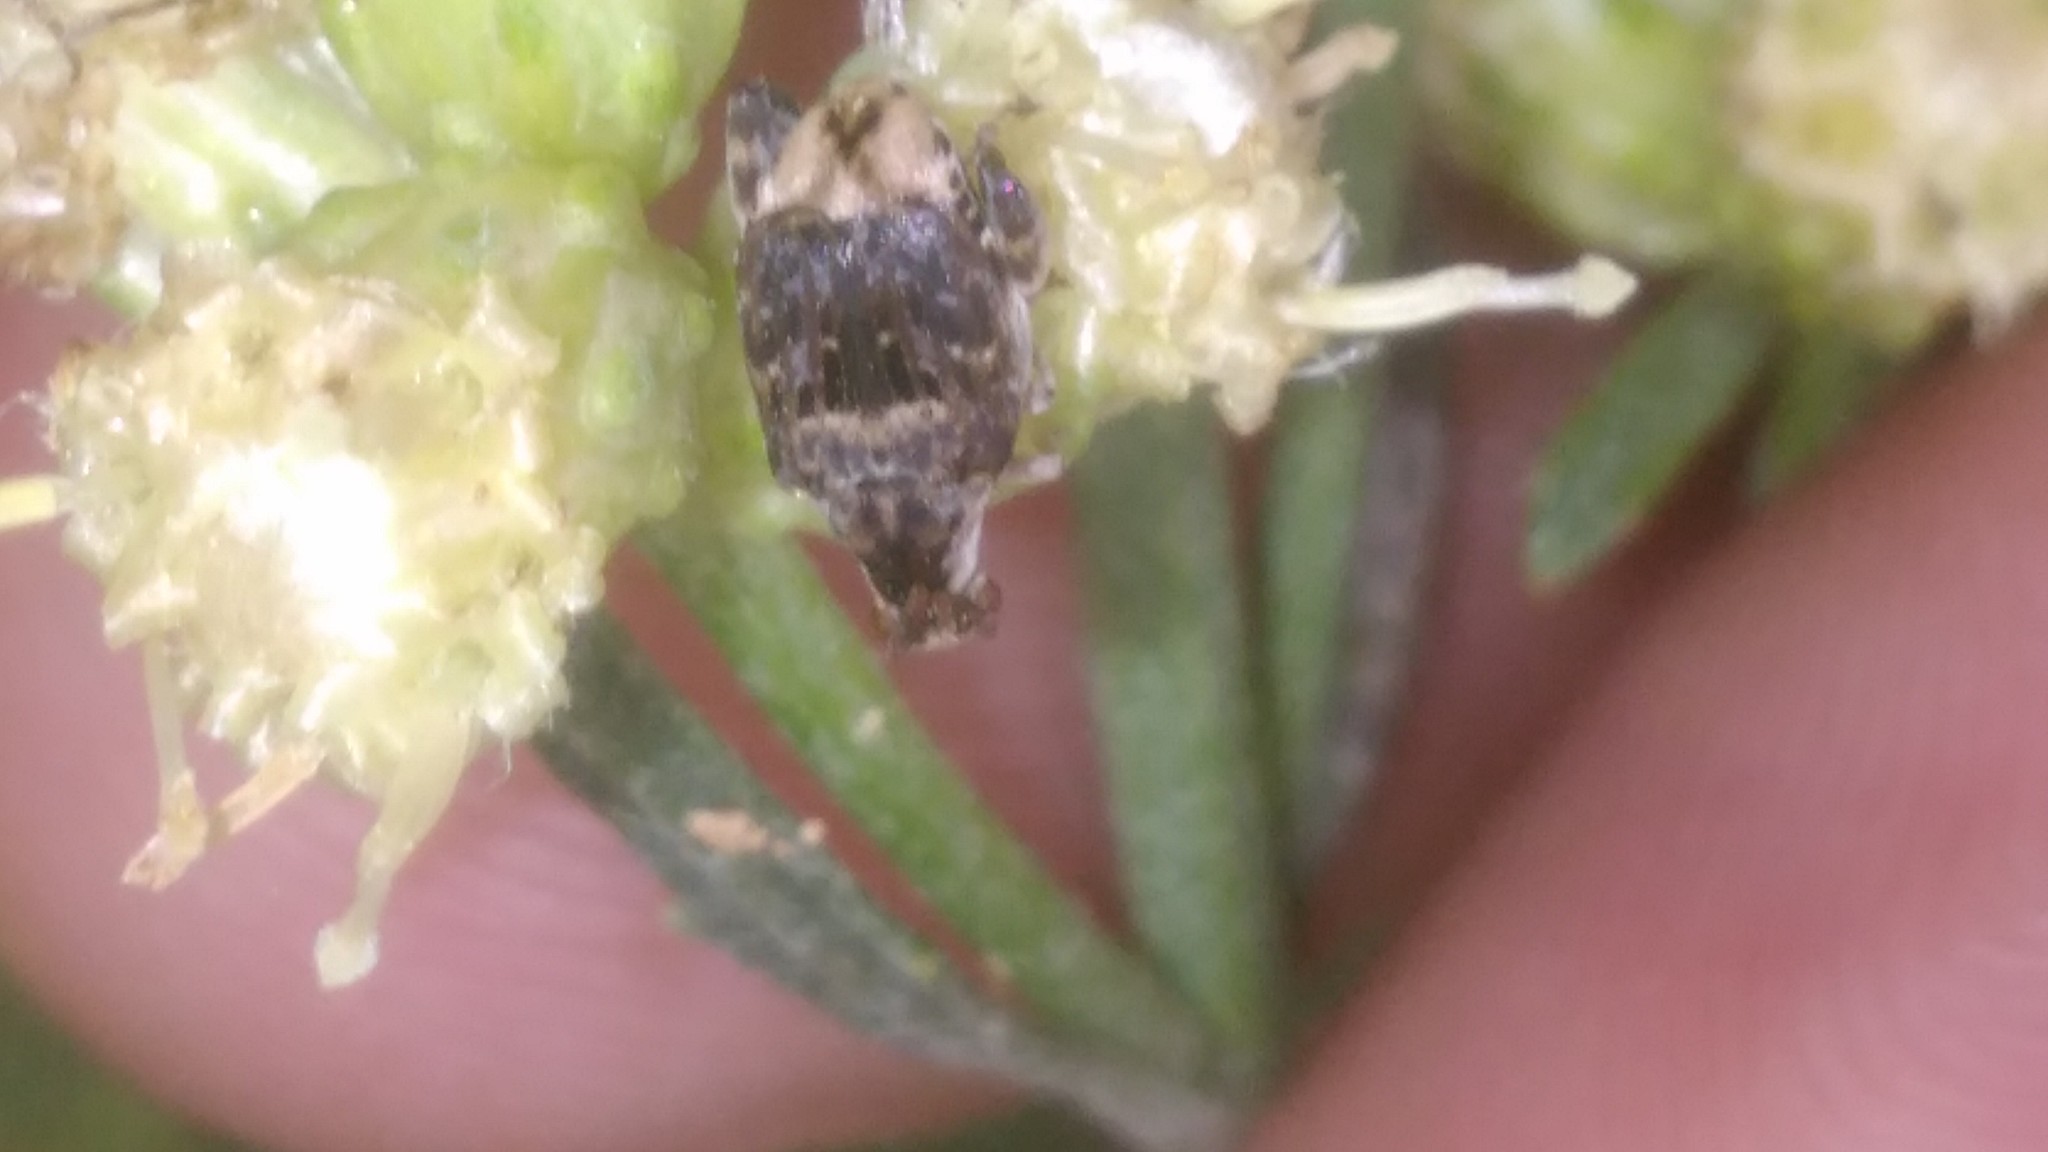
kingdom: Animalia
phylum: Arthropoda
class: Insecta
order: Coleoptera
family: Chrysomelidae
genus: Penthobruchus
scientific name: Penthobruchus
